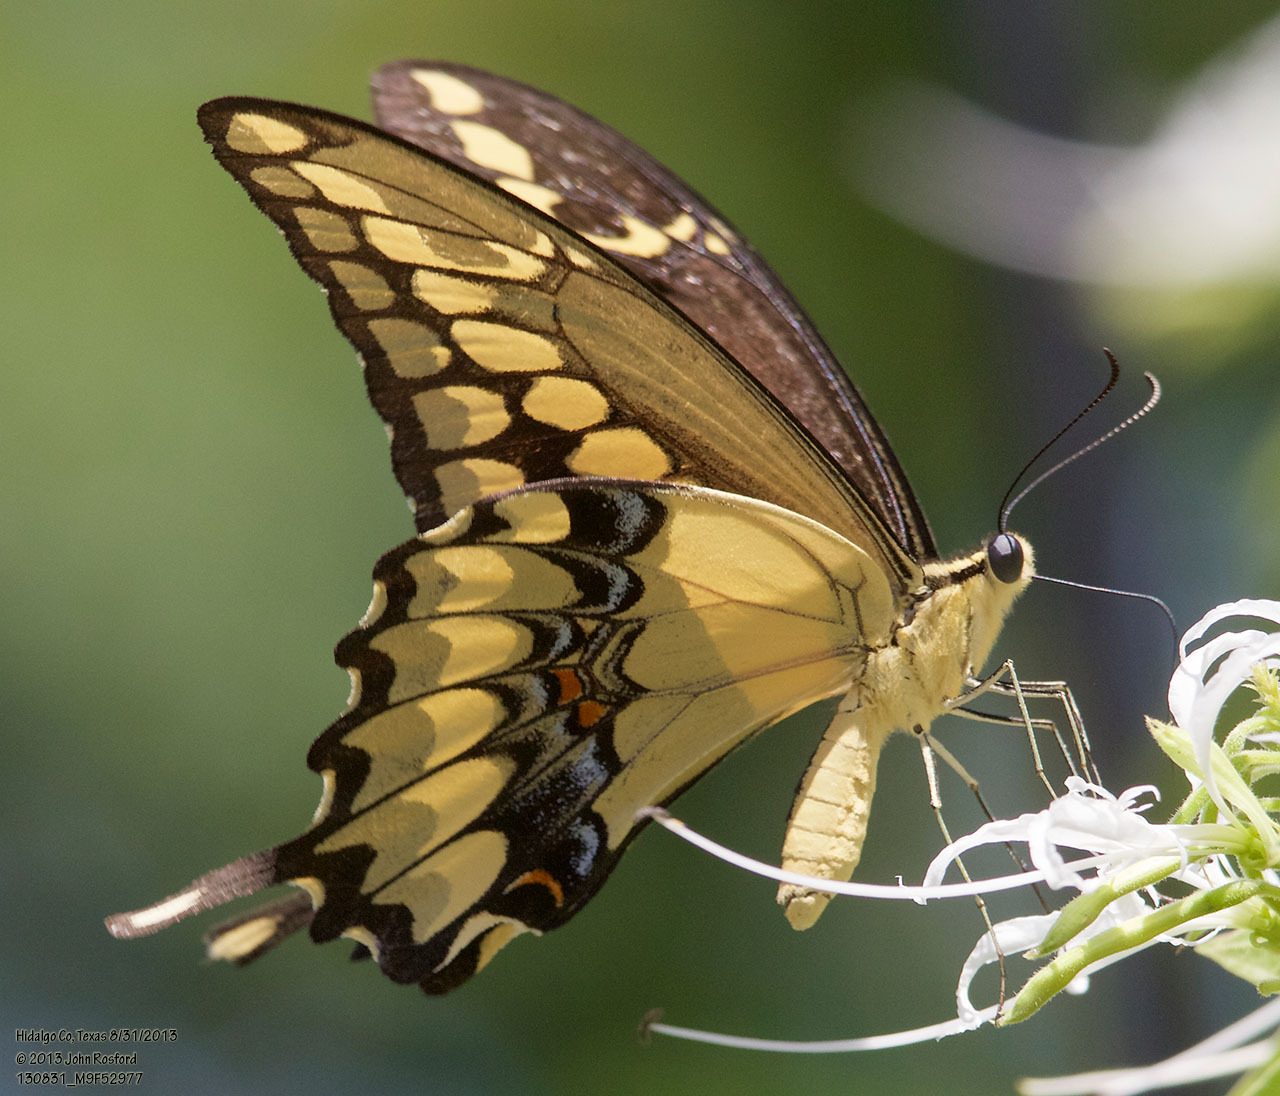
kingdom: Animalia
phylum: Arthropoda
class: Insecta
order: Lepidoptera
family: Papilionidae
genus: Papilio
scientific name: Papilio rumiko
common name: Western giant swallowtail
